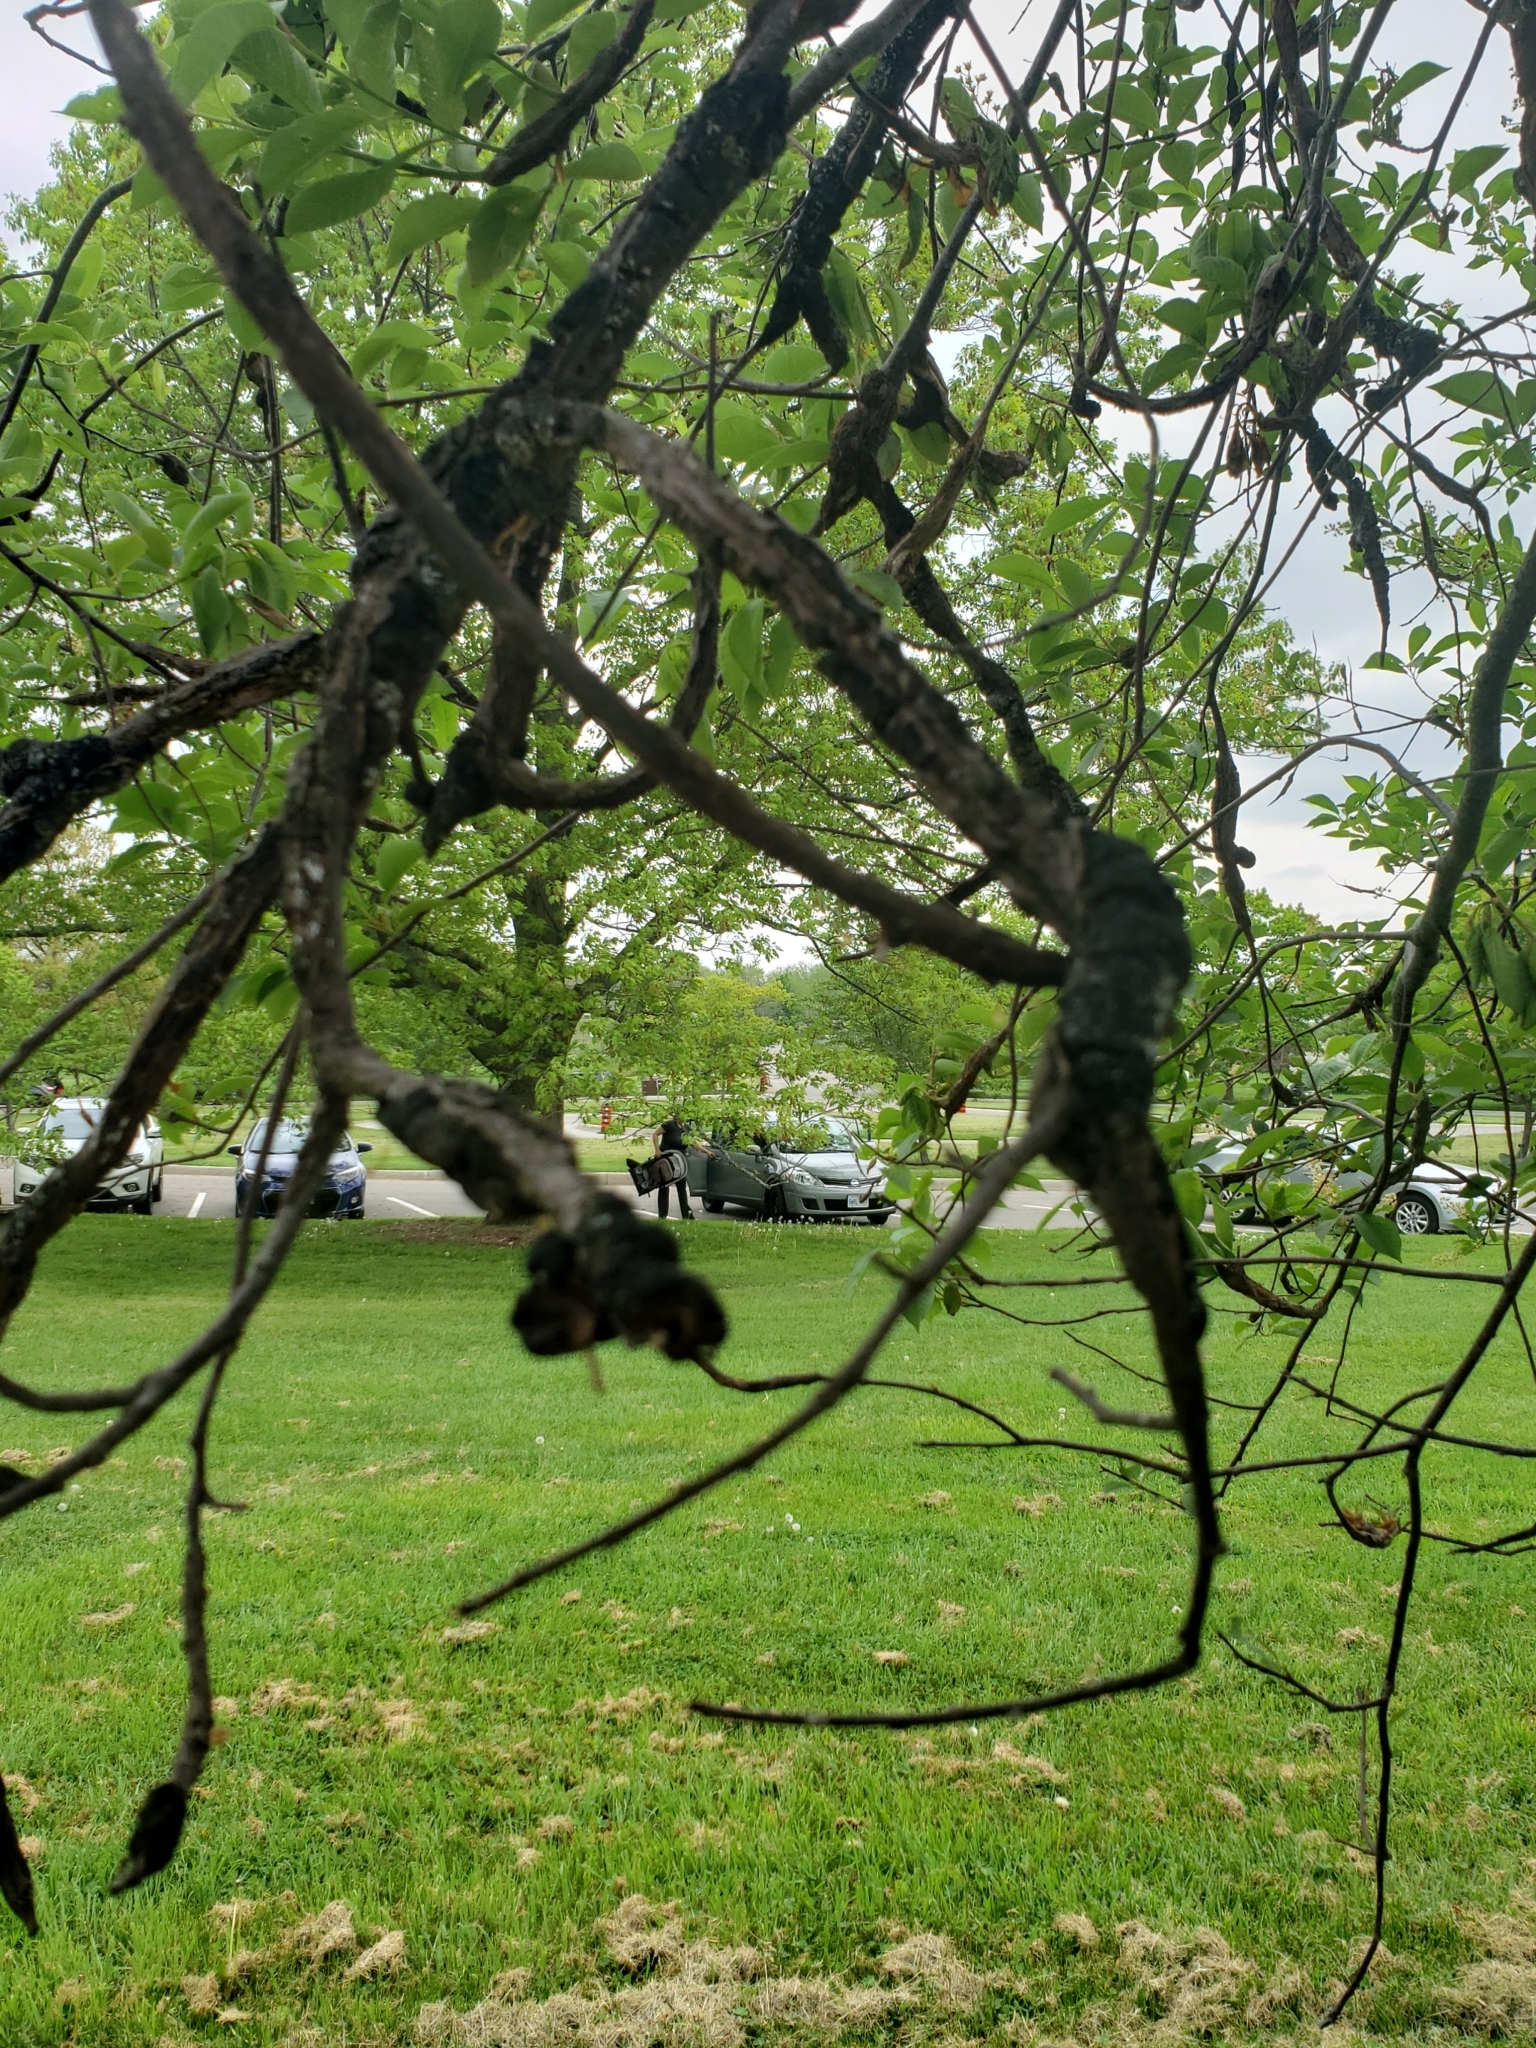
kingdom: Fungi
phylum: Ascomycota
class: Dothideomycetes
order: Venturiales
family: Venturiaceae
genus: Apiosporina
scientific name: Apiosporina morbosa
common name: Black knot
